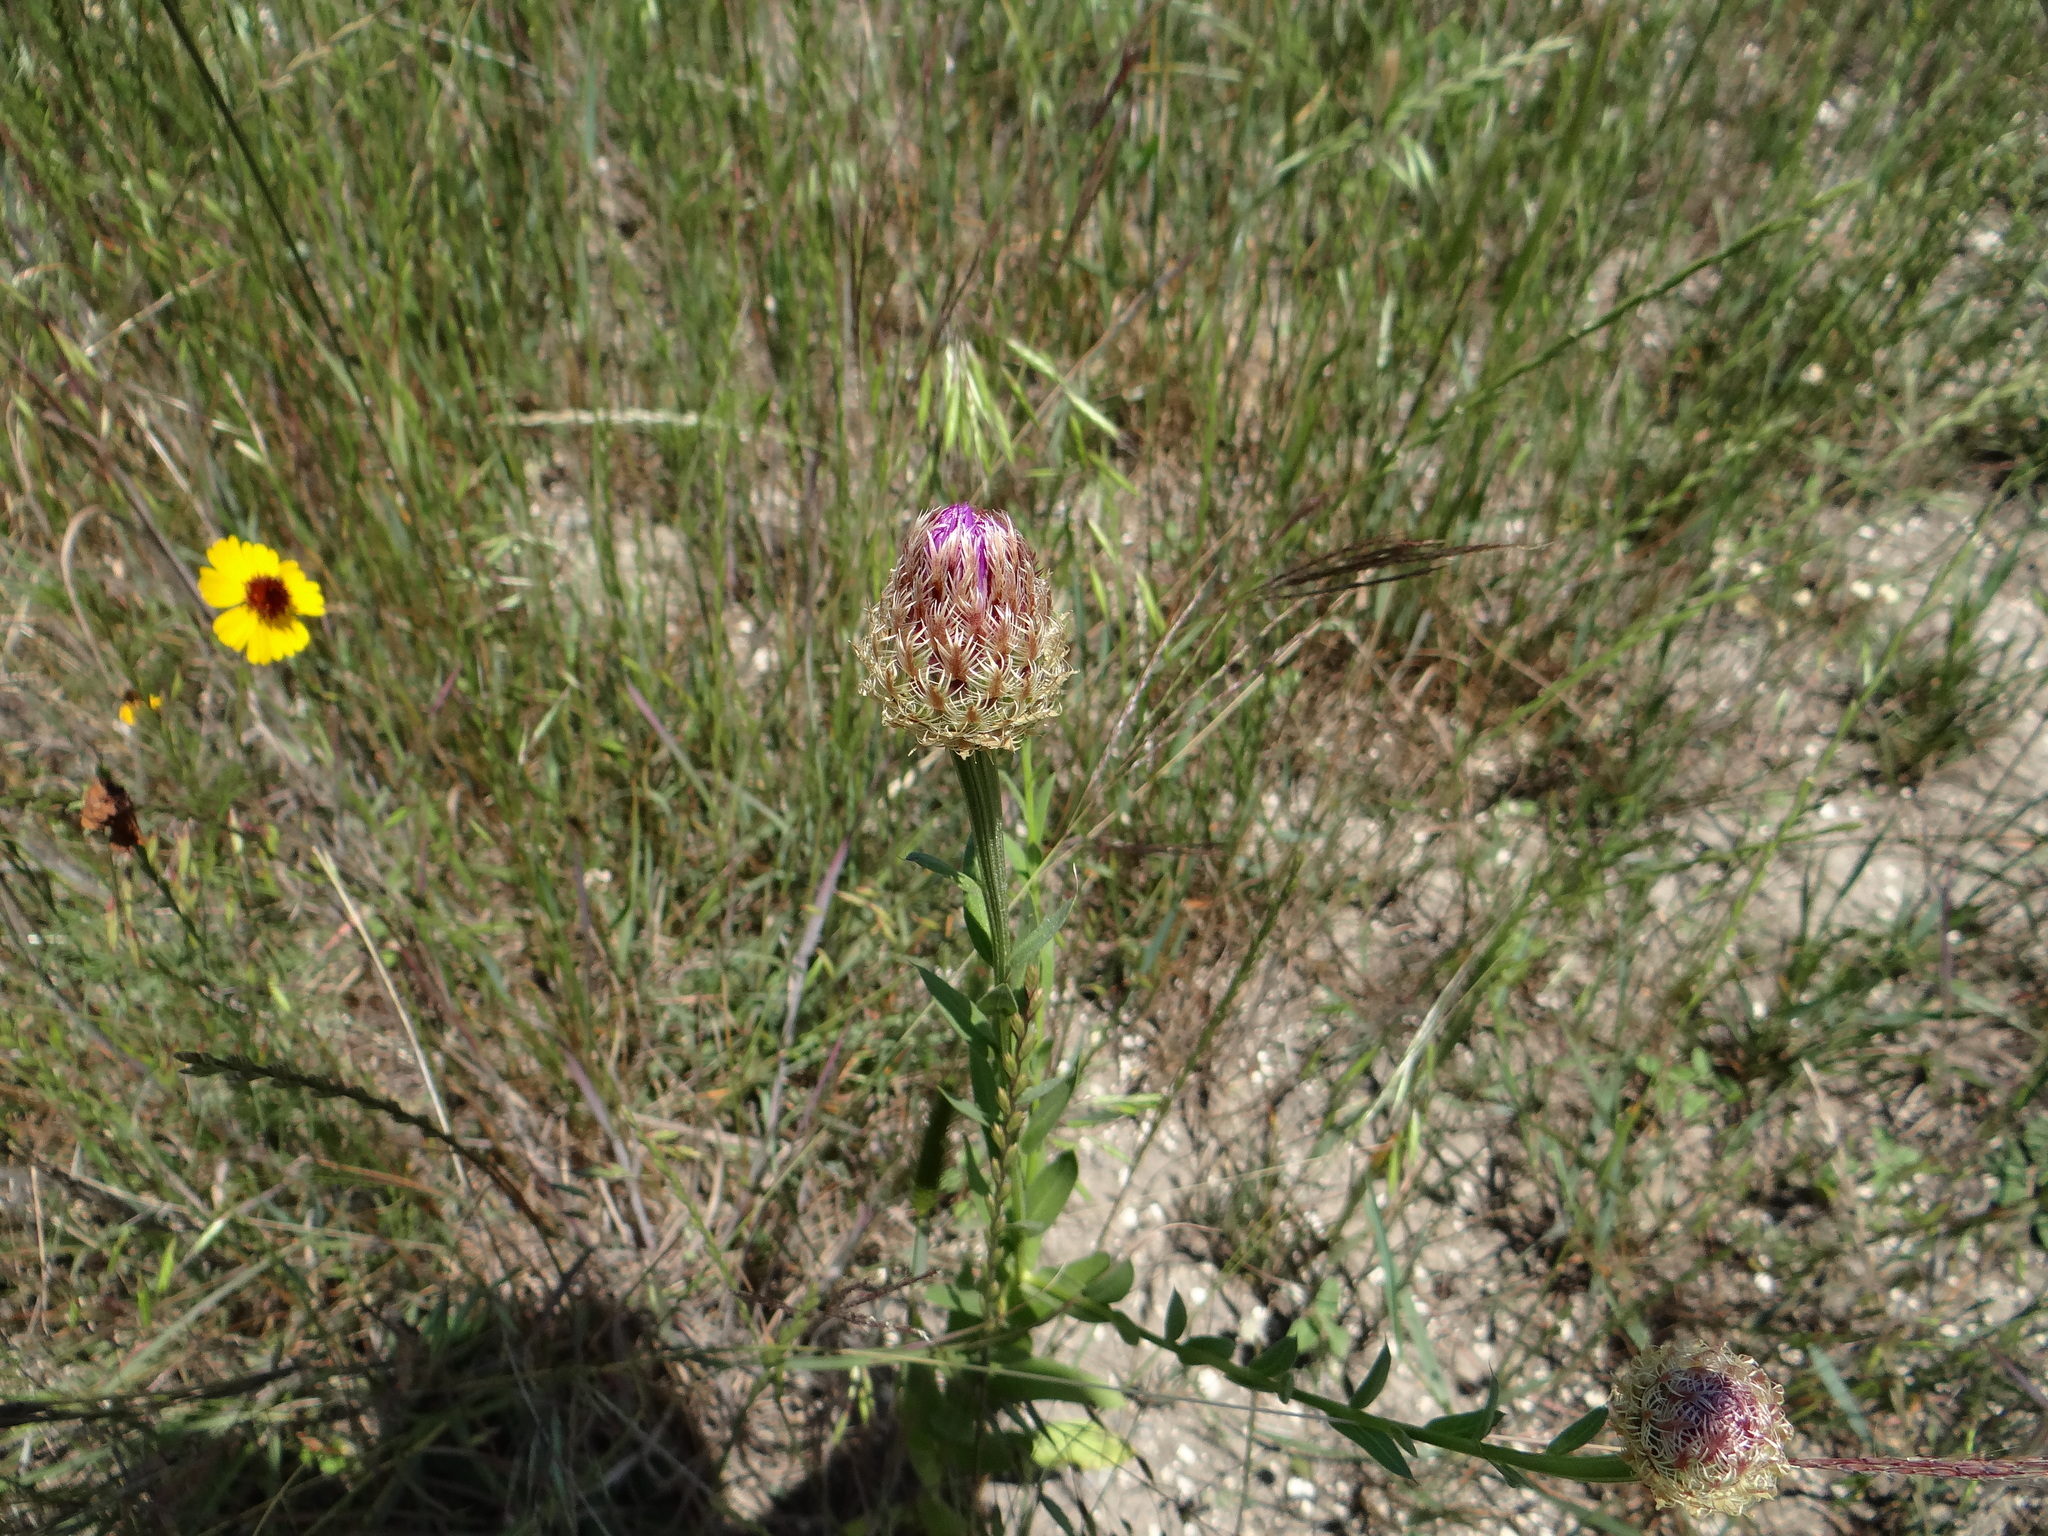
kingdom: Plantae
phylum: Tracheophyta
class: Magnoliopsida
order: Asterales
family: Asteraceae
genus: Plectocephalus
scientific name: Plectocephalus americanus
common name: American basket-flower
